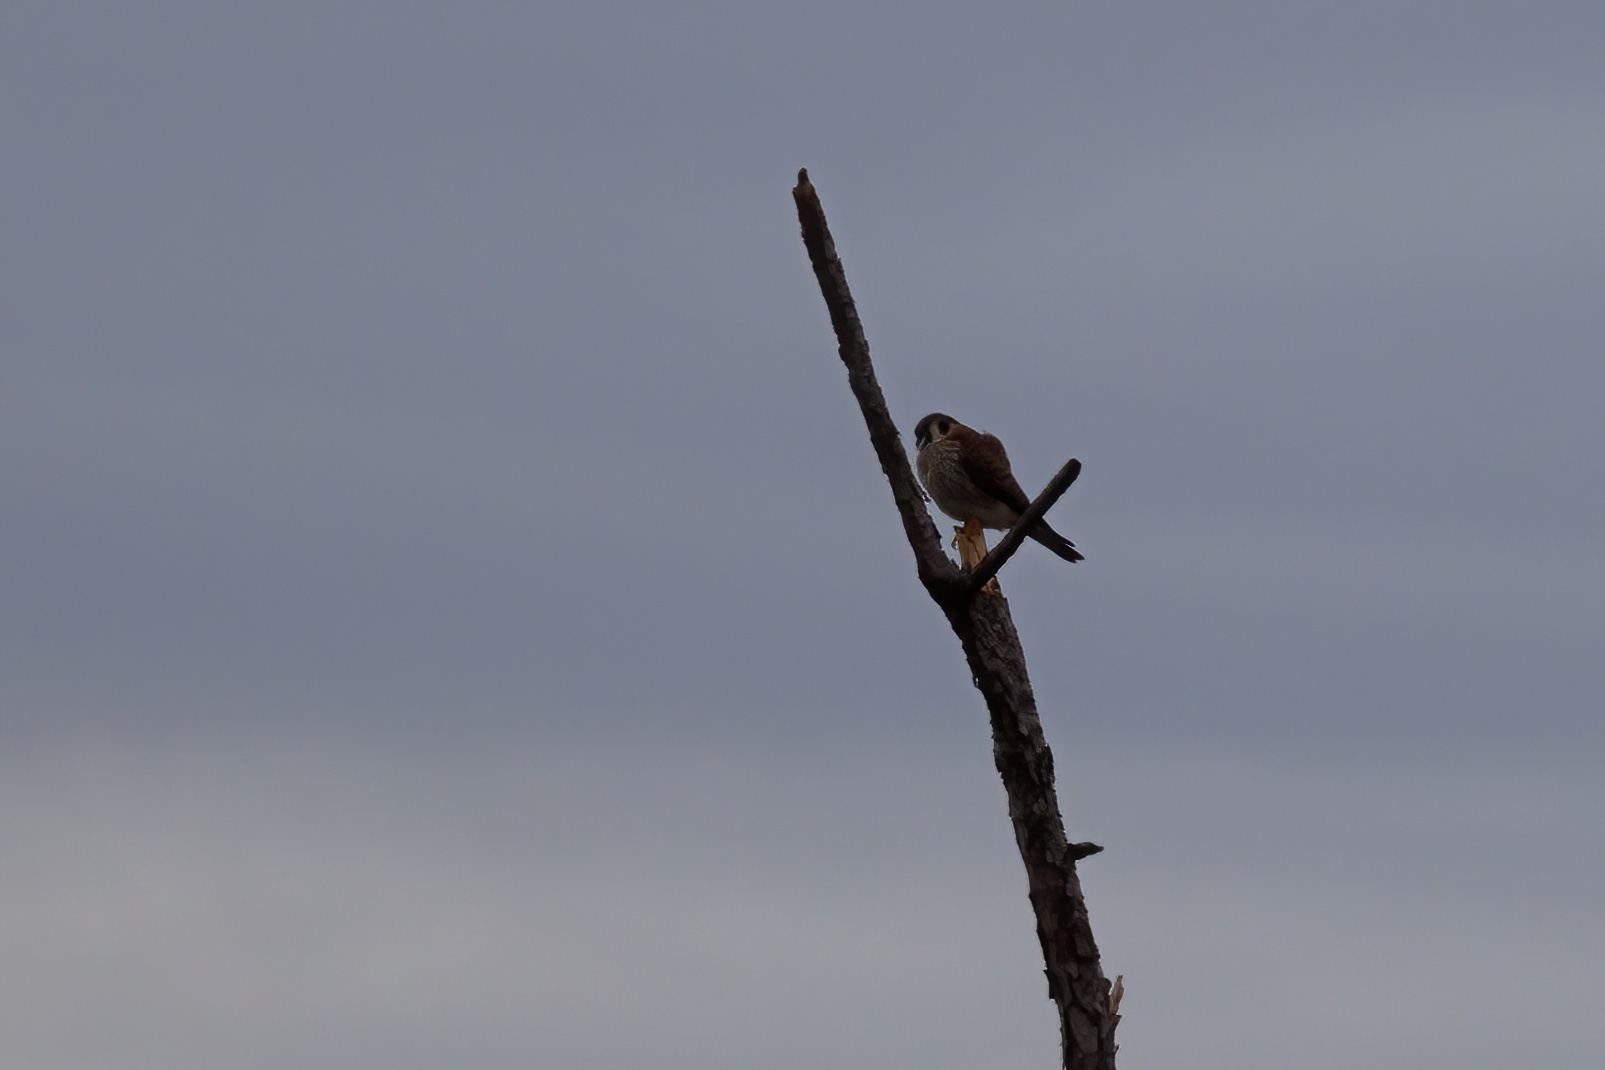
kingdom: Animalia
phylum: Chordata
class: Aves
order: Falconiformes
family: Falconidae
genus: Falco
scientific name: Falco sparverius
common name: American kestrel
